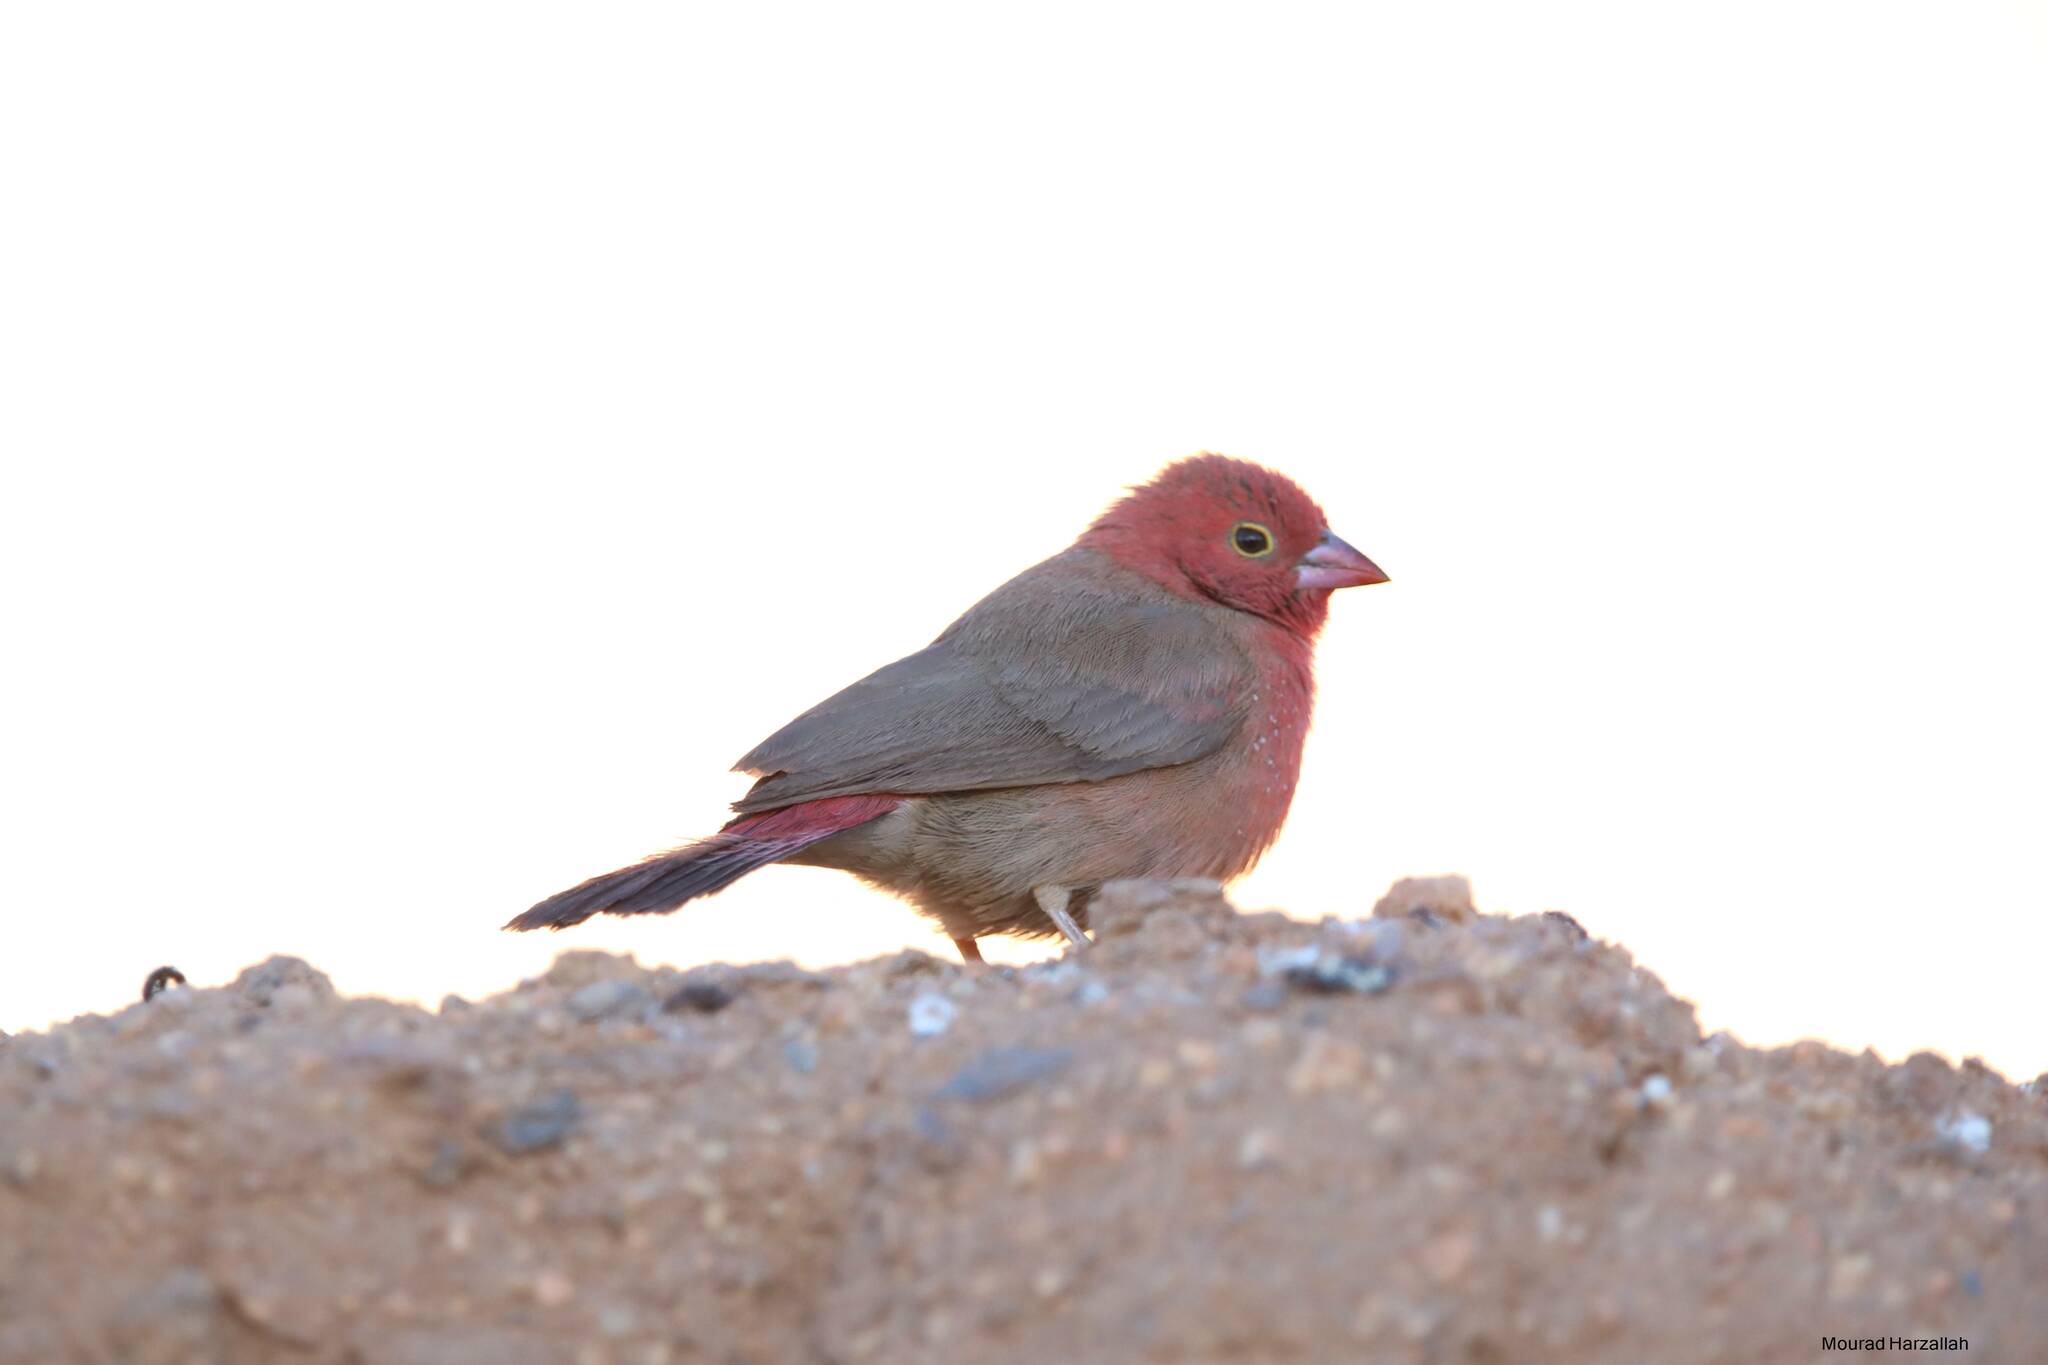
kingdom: Animalia
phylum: Chordata
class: Aves
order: Passeriformes
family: Estrildidae
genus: Lagonosticta
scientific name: Lagonosticta senegala
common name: Red-billed firefinch
